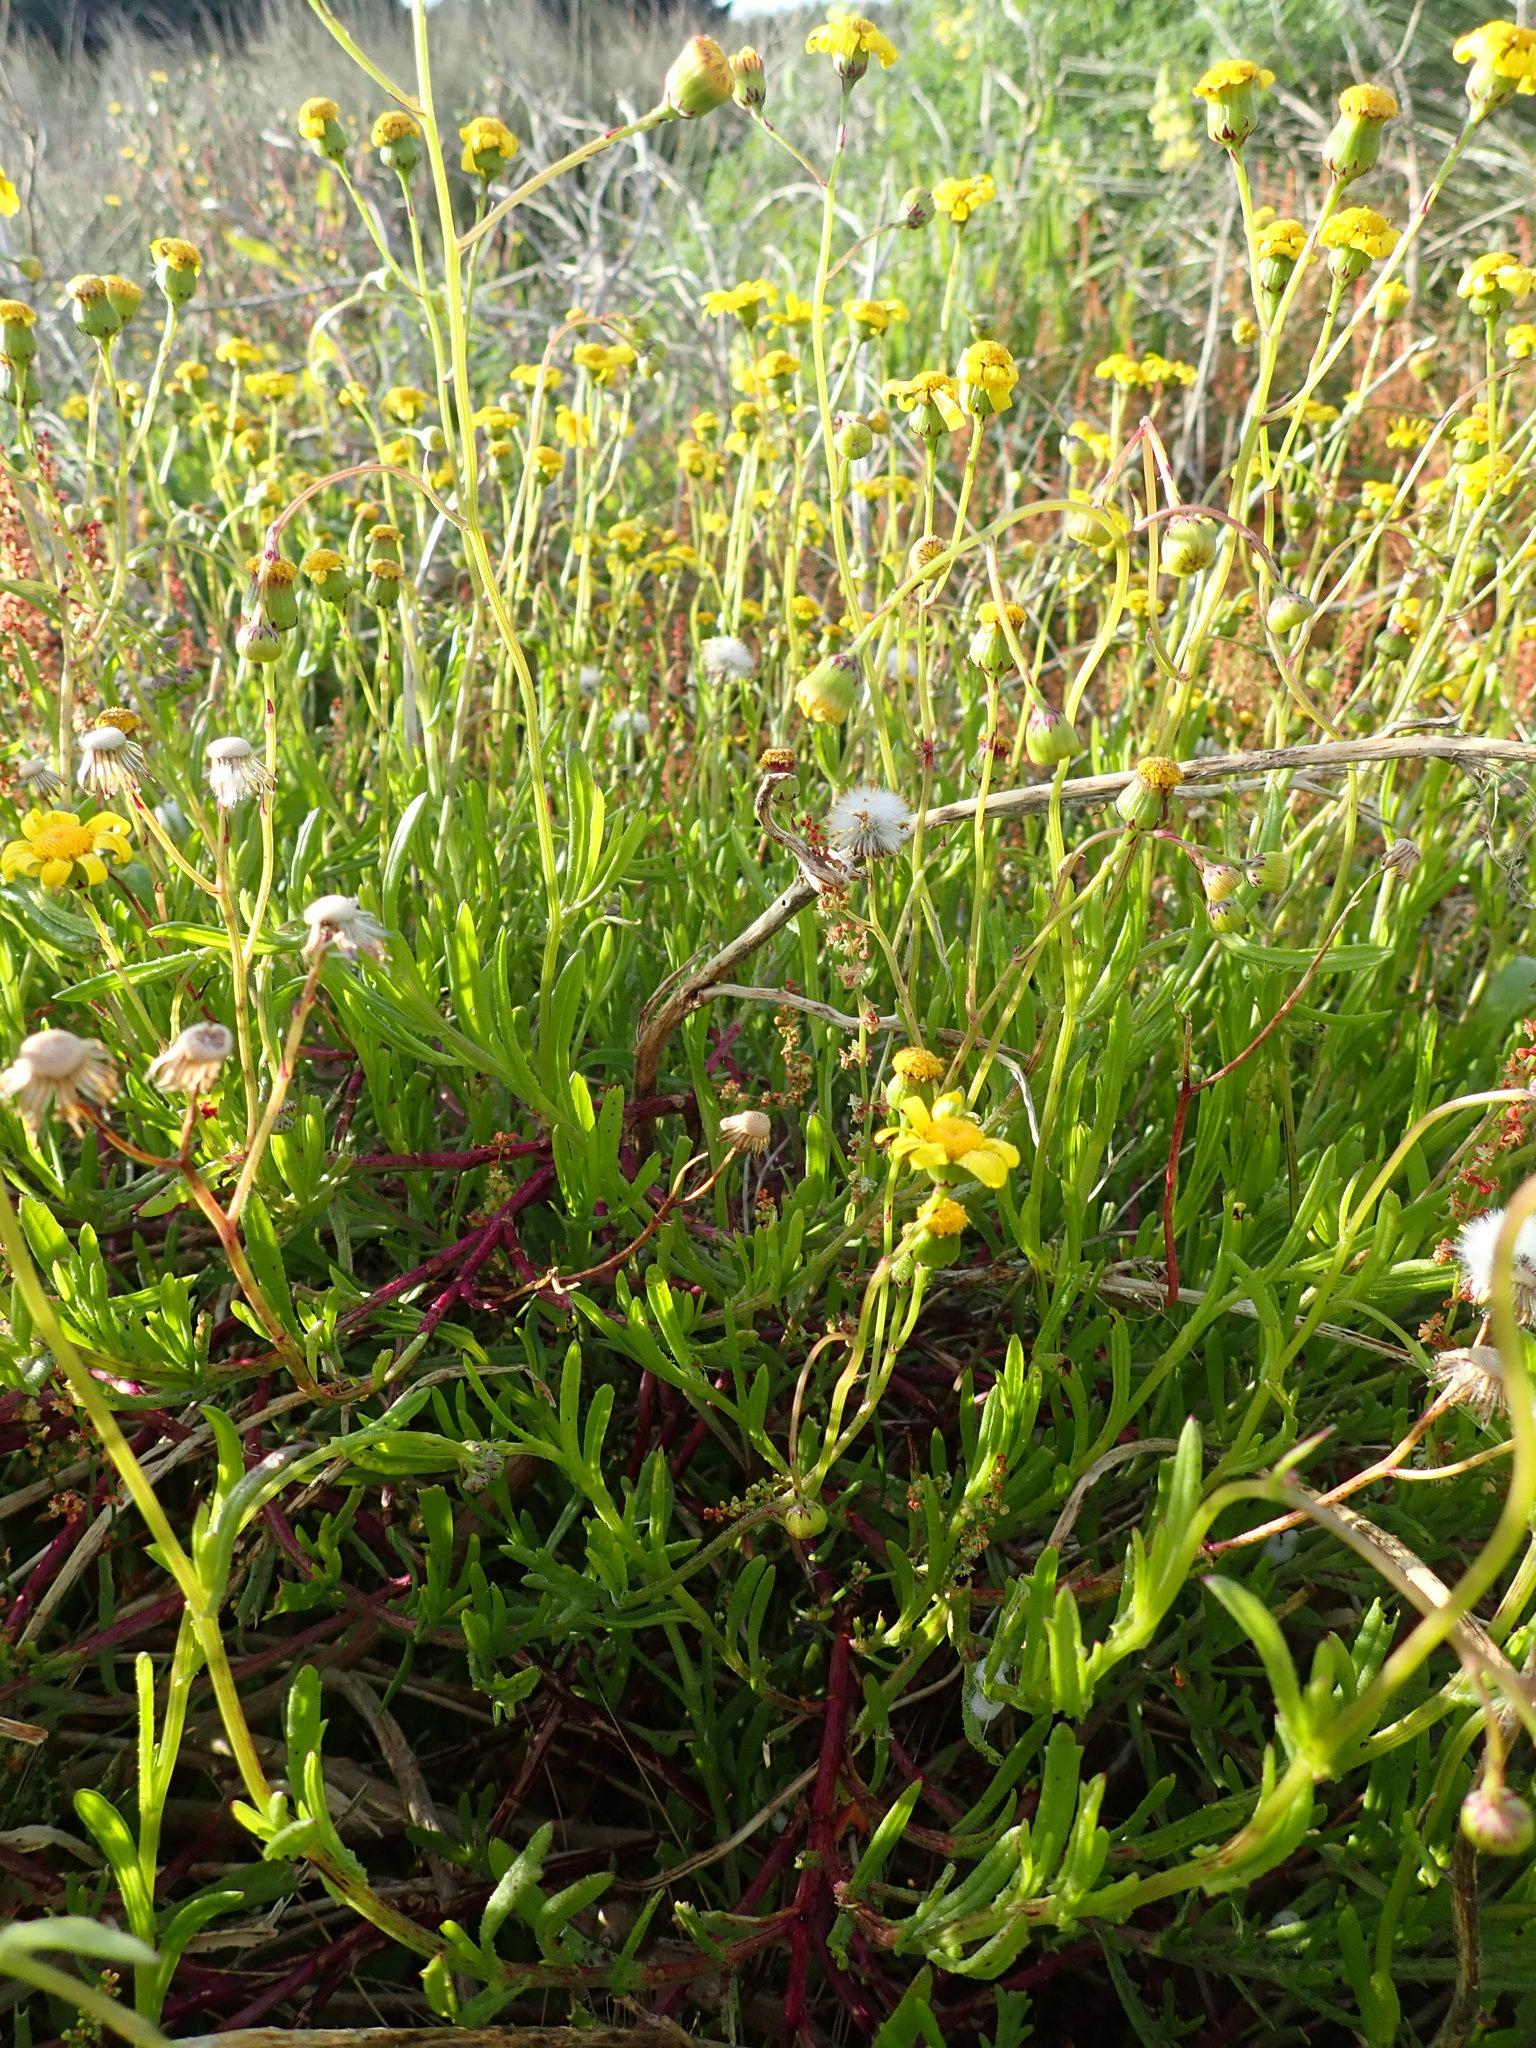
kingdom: Plantae
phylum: Tracheophyta
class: Magnoliopsida
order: Asterales
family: Asteraceae
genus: Senecio
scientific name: Senecio skirrhodon
